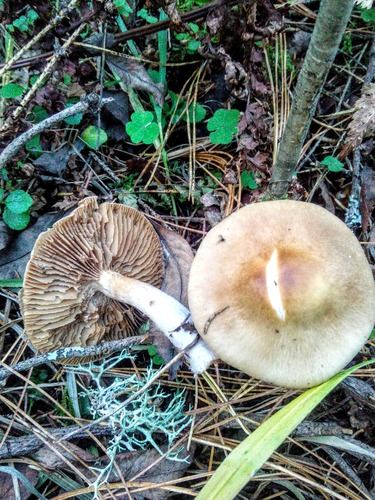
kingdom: Fungi
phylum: Basidiomycota
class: Agaricomycetes
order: Agaricales
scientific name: Agaricales
